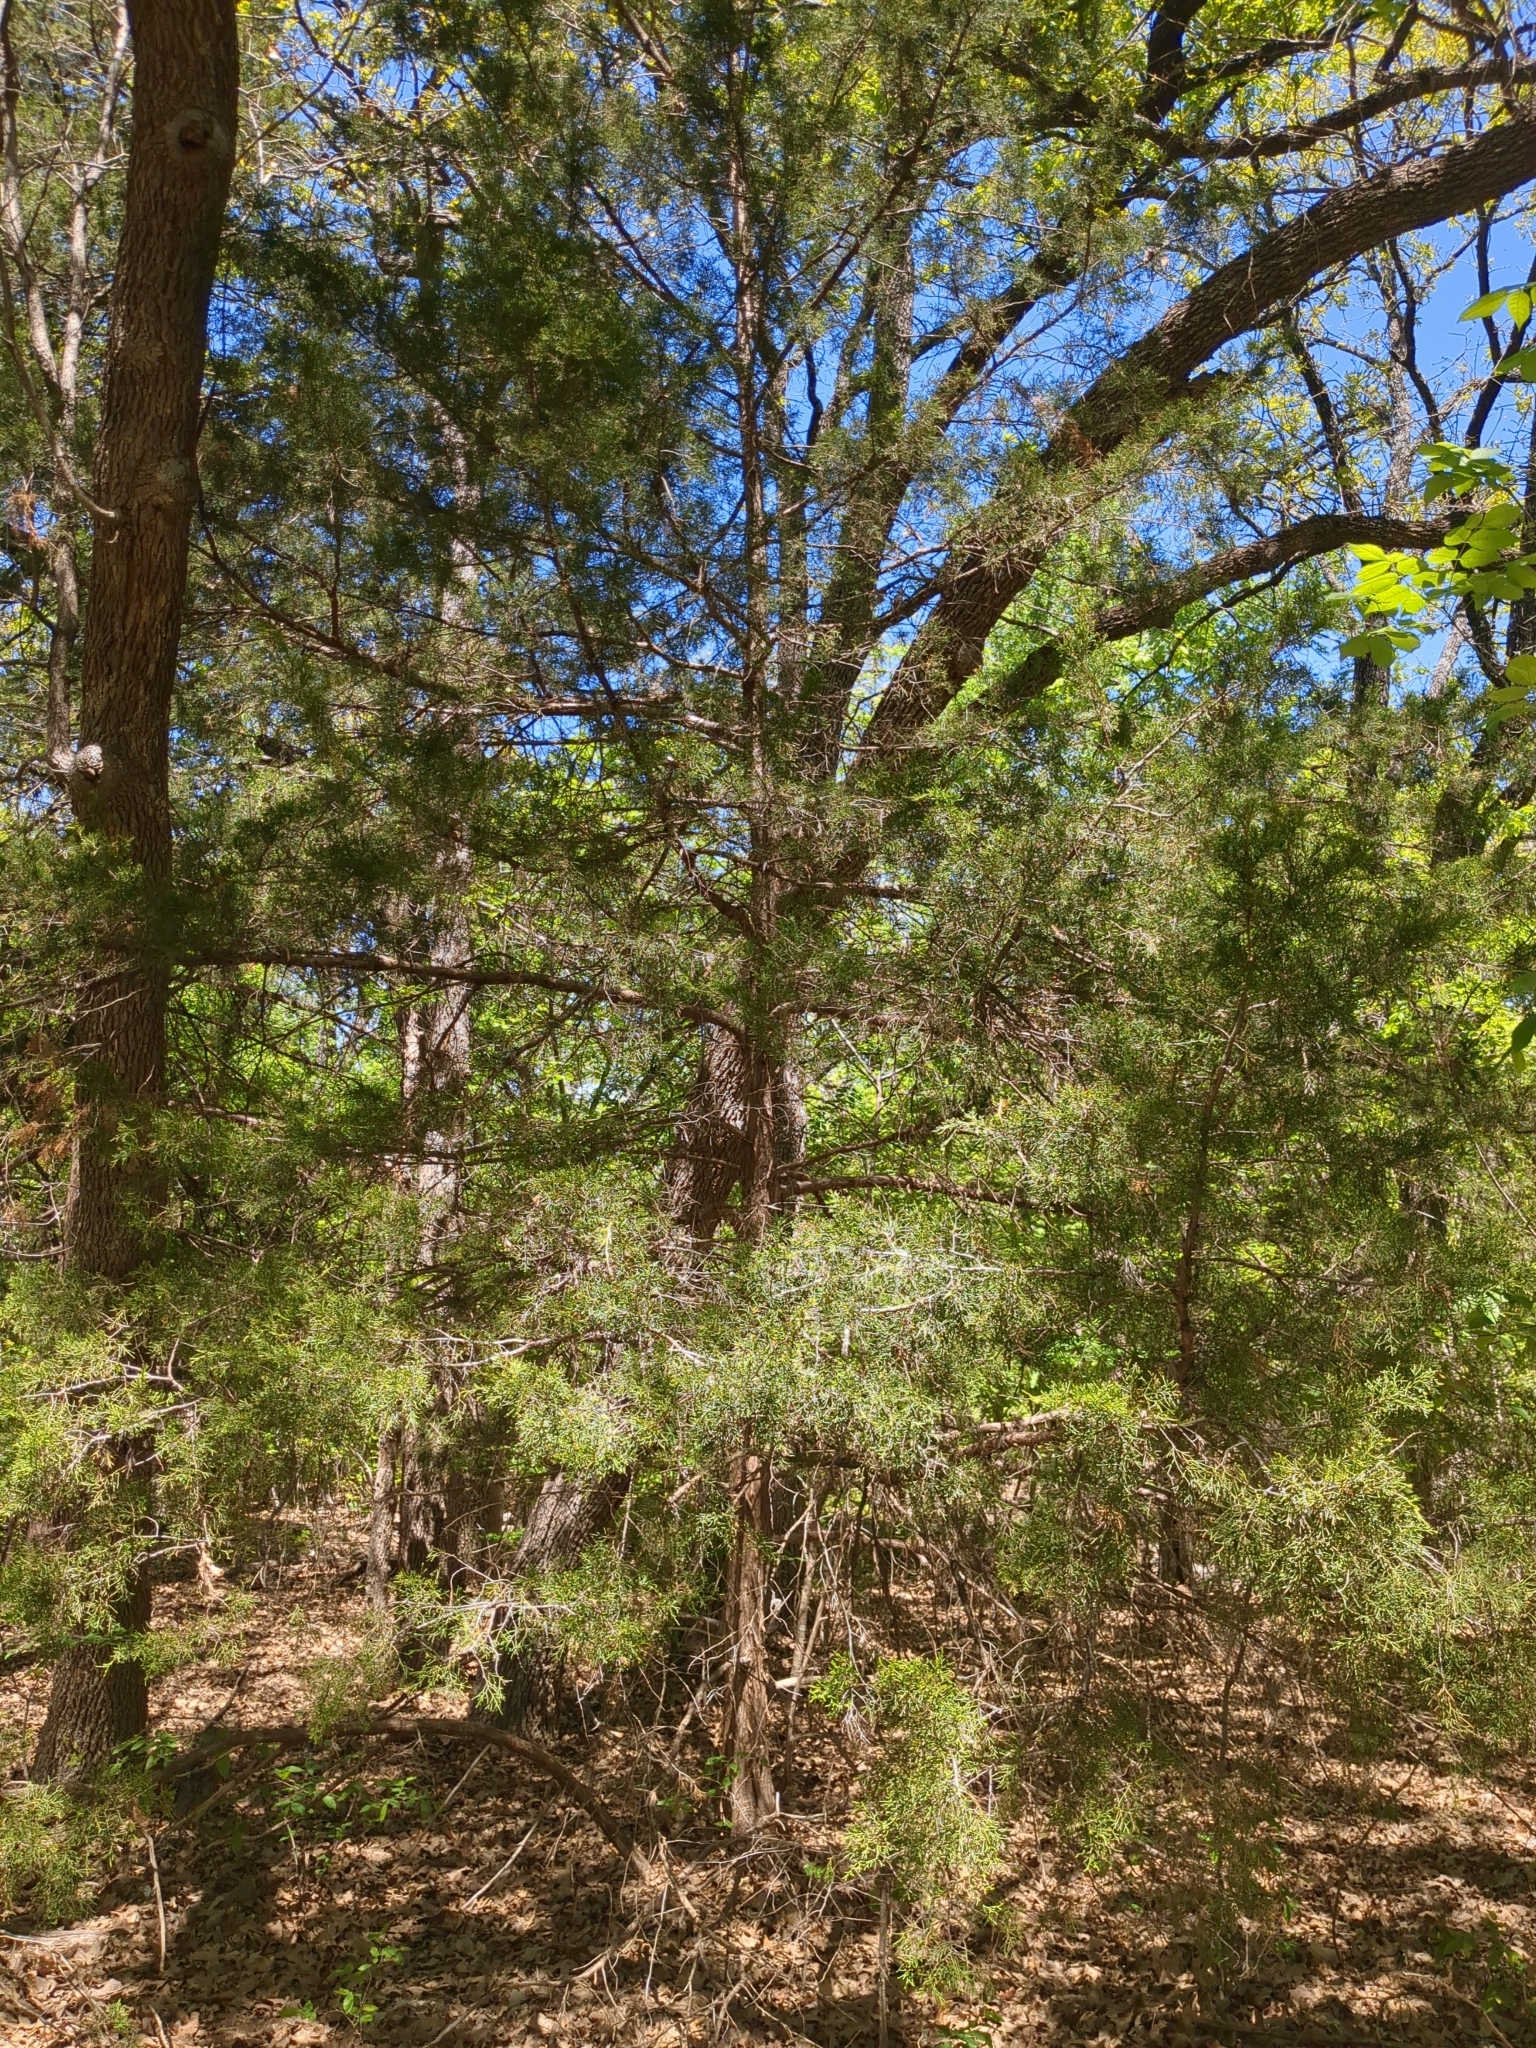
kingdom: Plantae
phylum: Tracheophyta
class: Pinopsida
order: Pinales
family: Cupressaceae
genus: Juniperus
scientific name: Juniperus virginiana
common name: Red juniper
